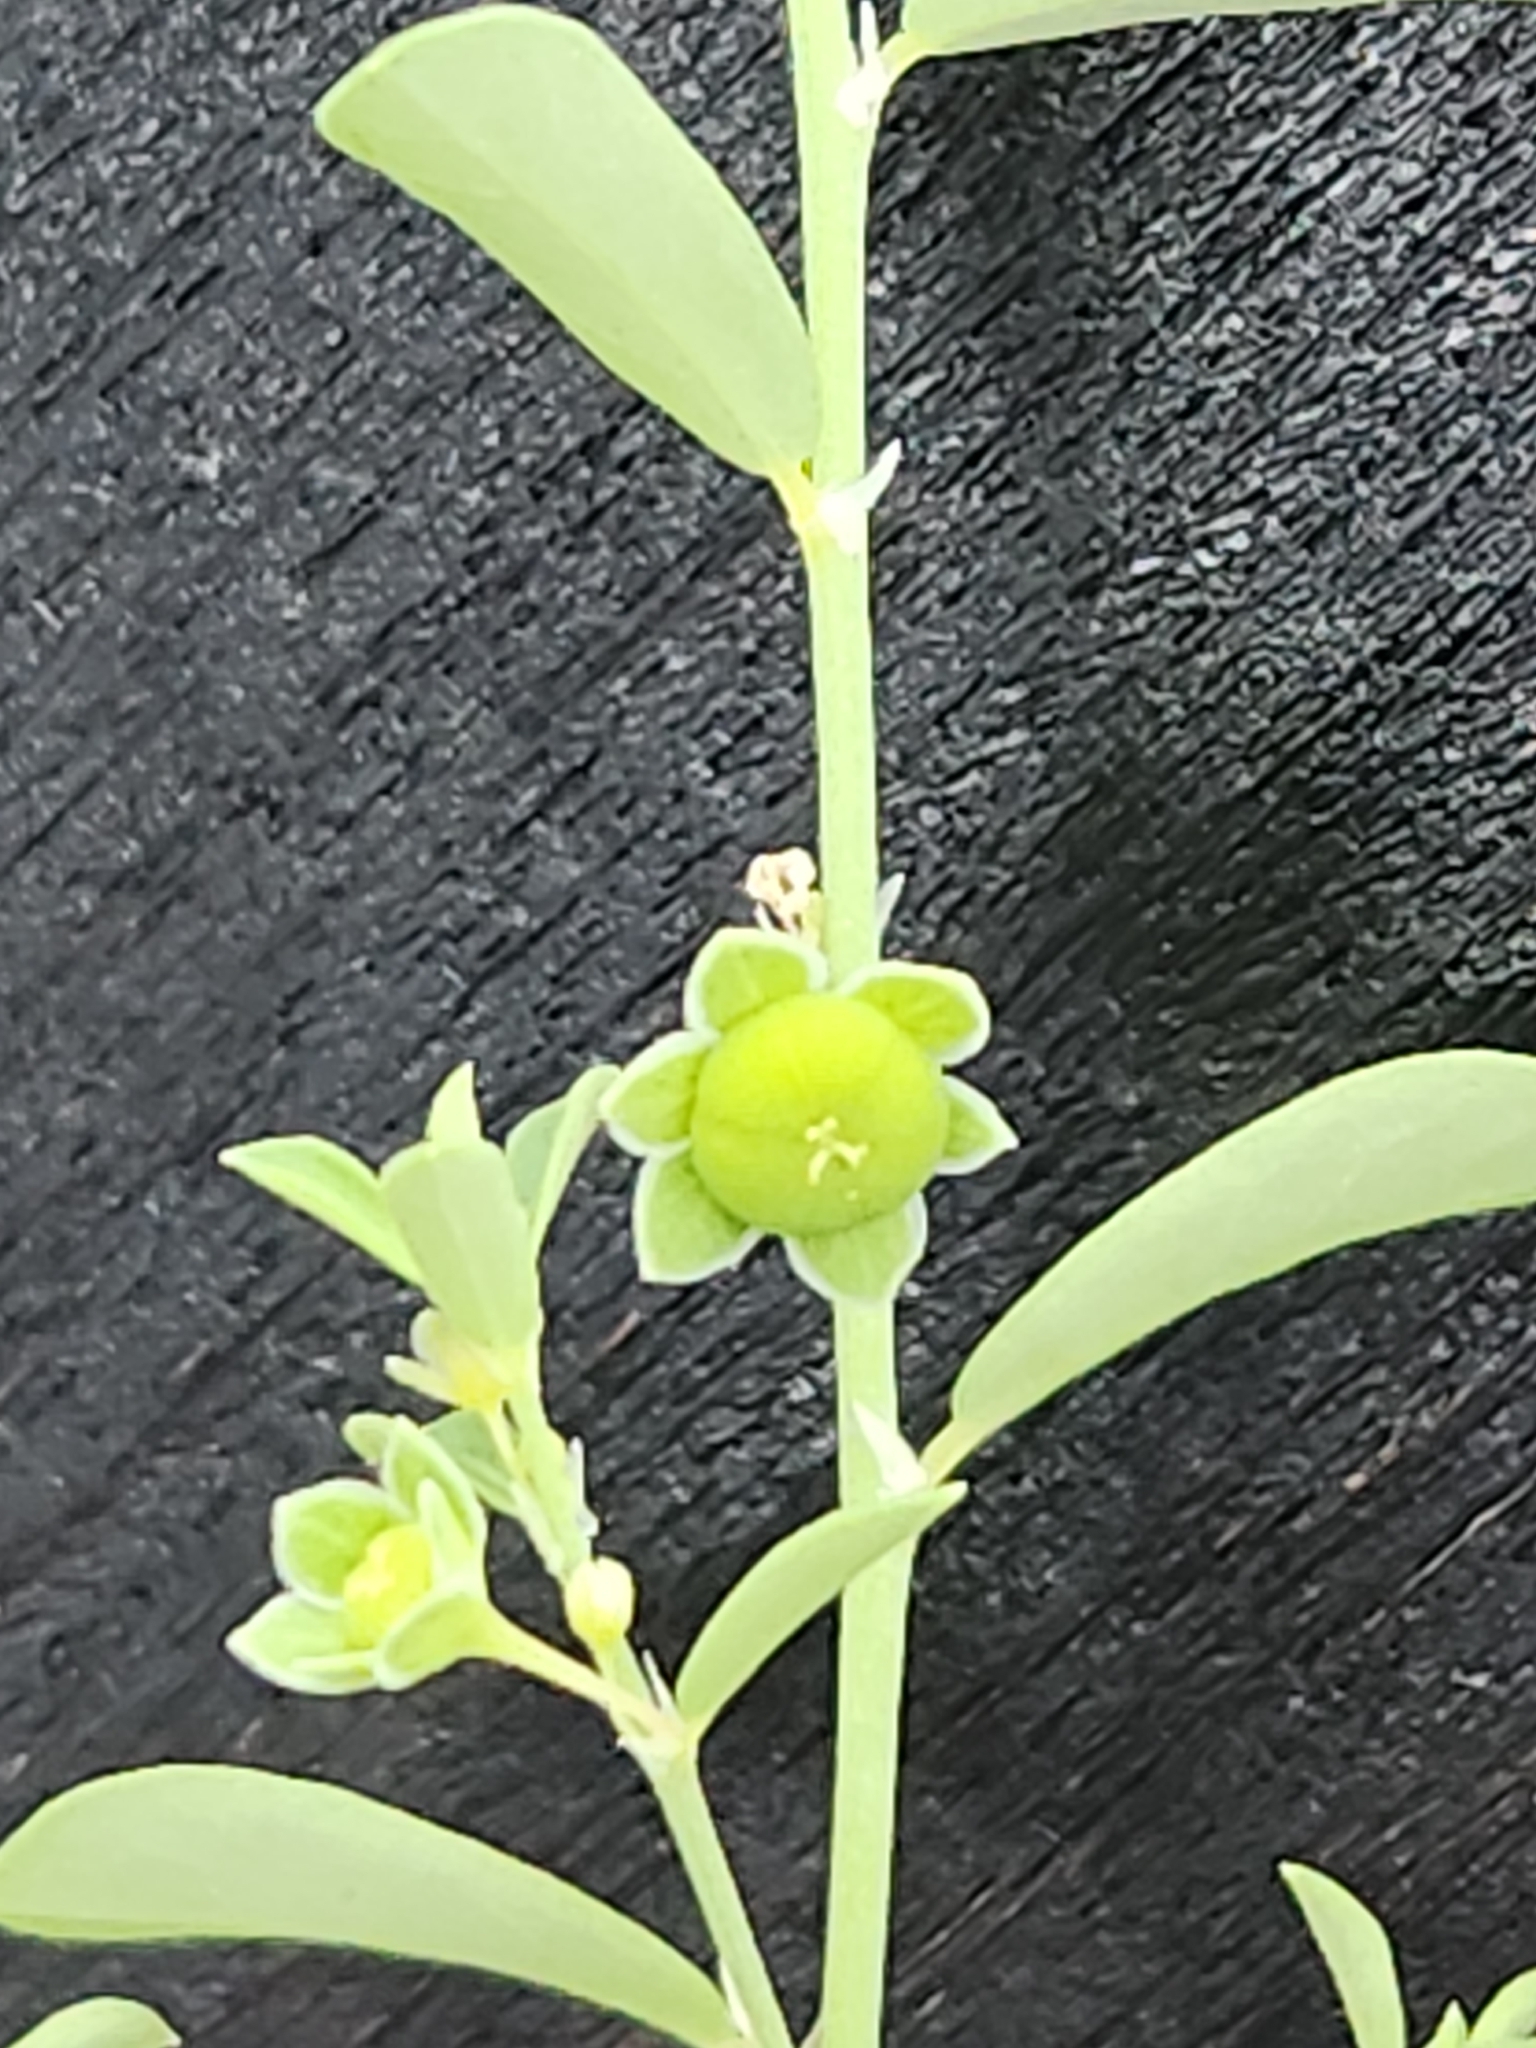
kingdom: Plantae
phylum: Tracheophyta
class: Magnoliopsida
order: Malpighiales
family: Phyllanthaceae
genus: Phyllanthus
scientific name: Phyllanthus polygonoides
